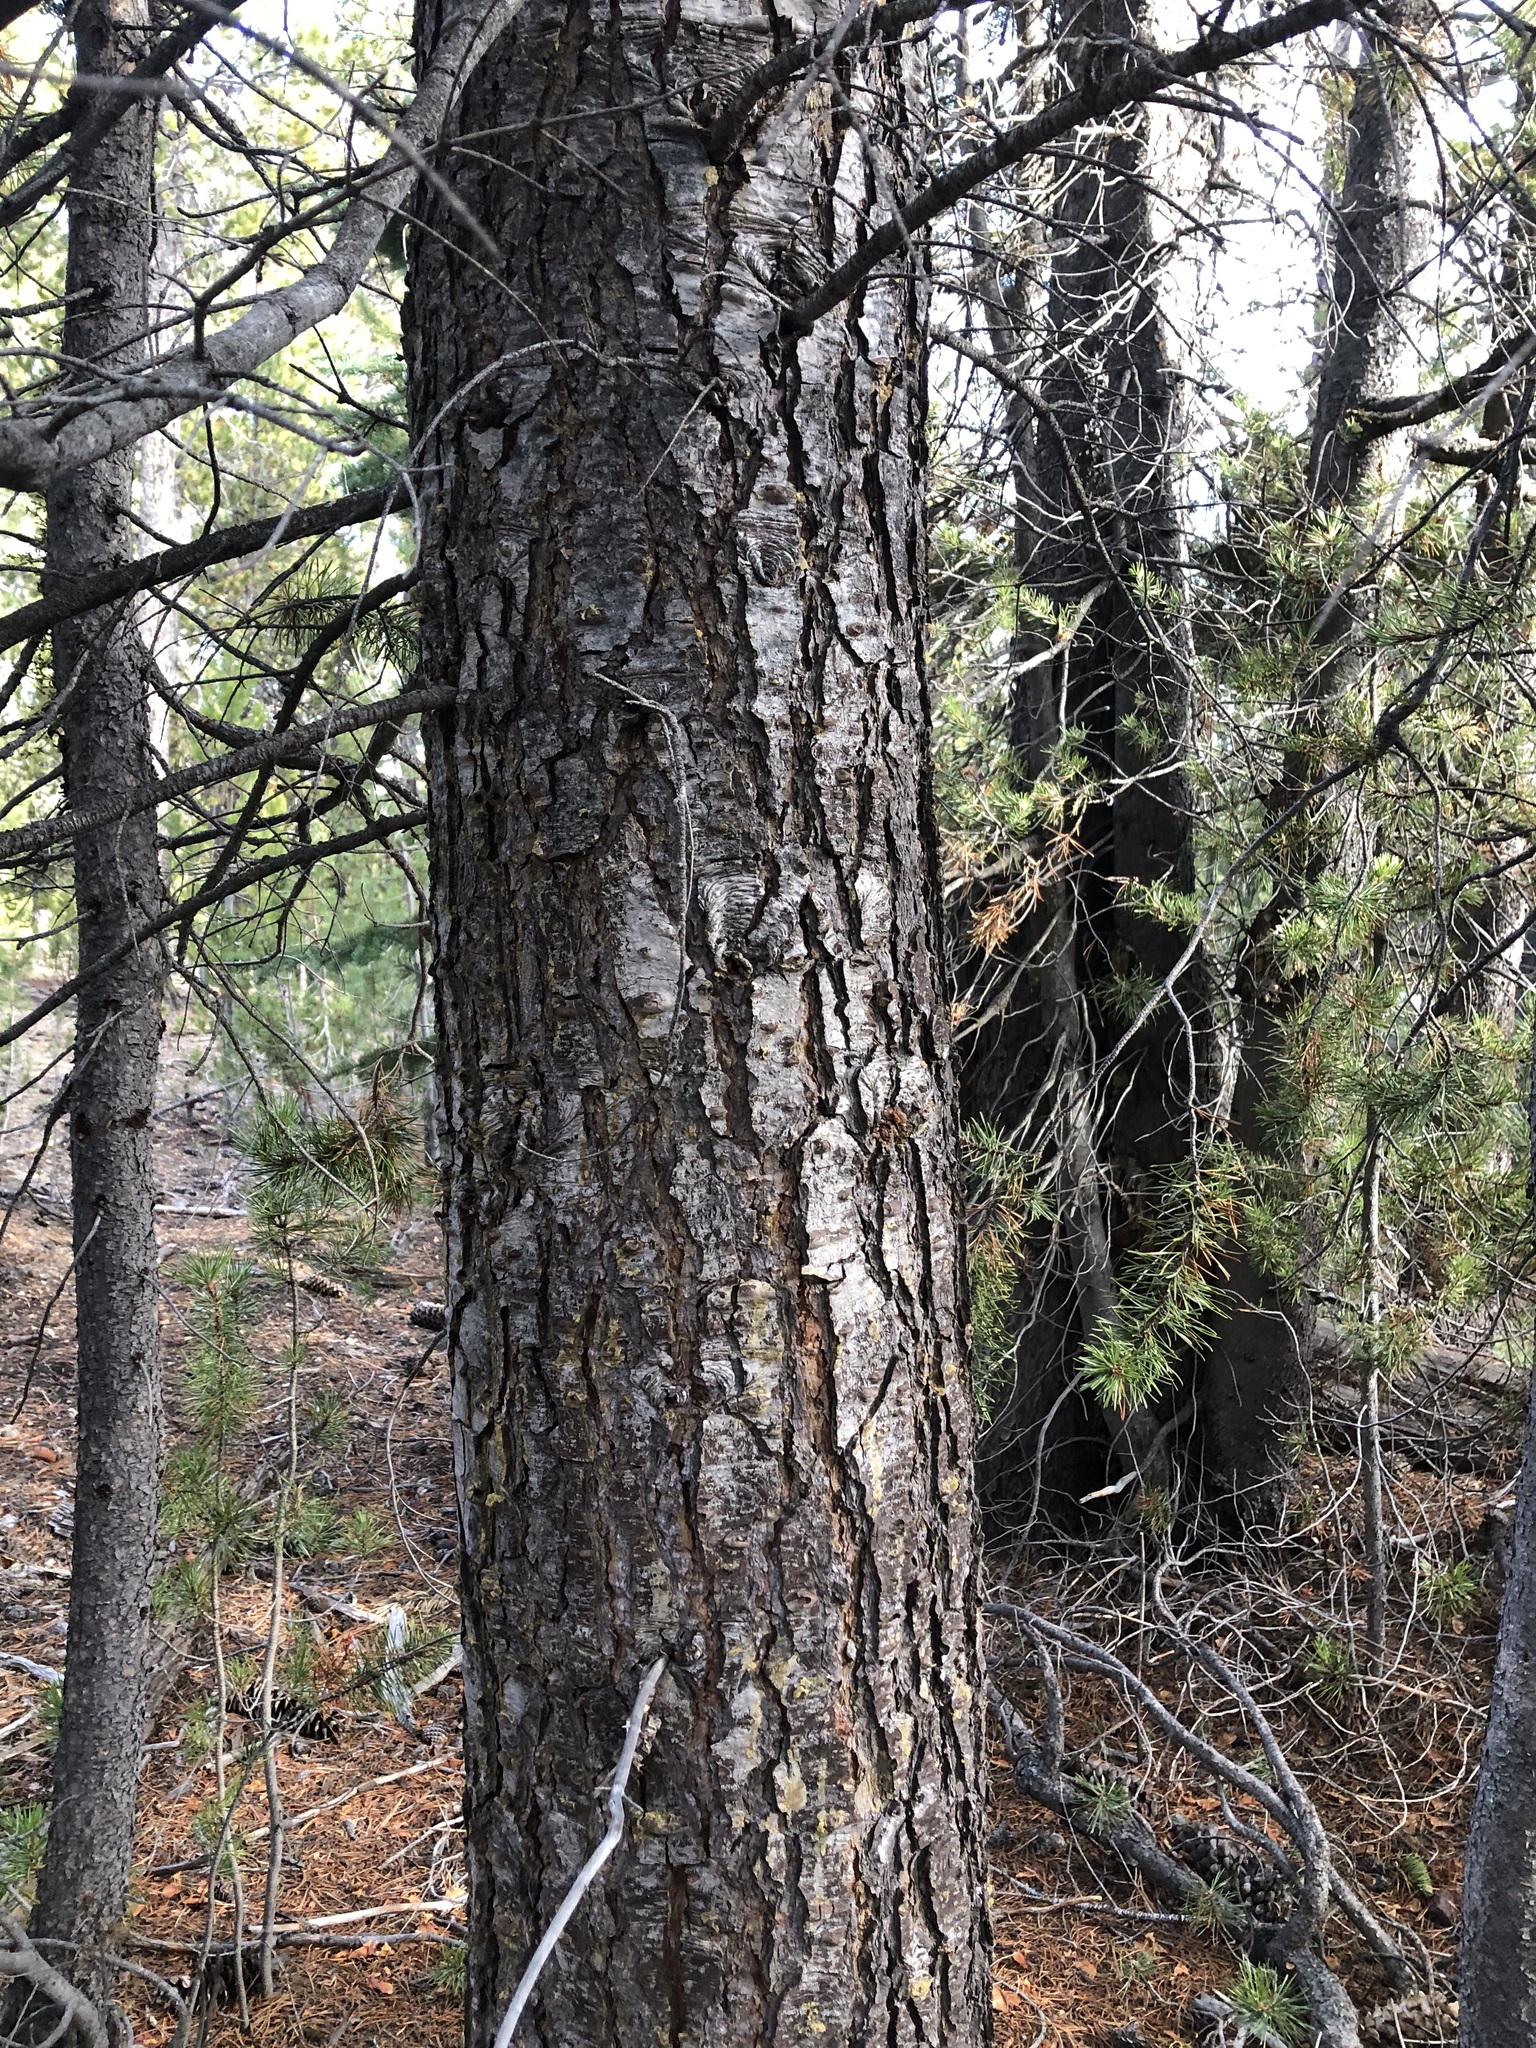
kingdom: Plantae
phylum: Tracheophyta
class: Pinopsida
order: Pinales
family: Pinaceae
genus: Abies
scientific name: Abies magnifica bis
